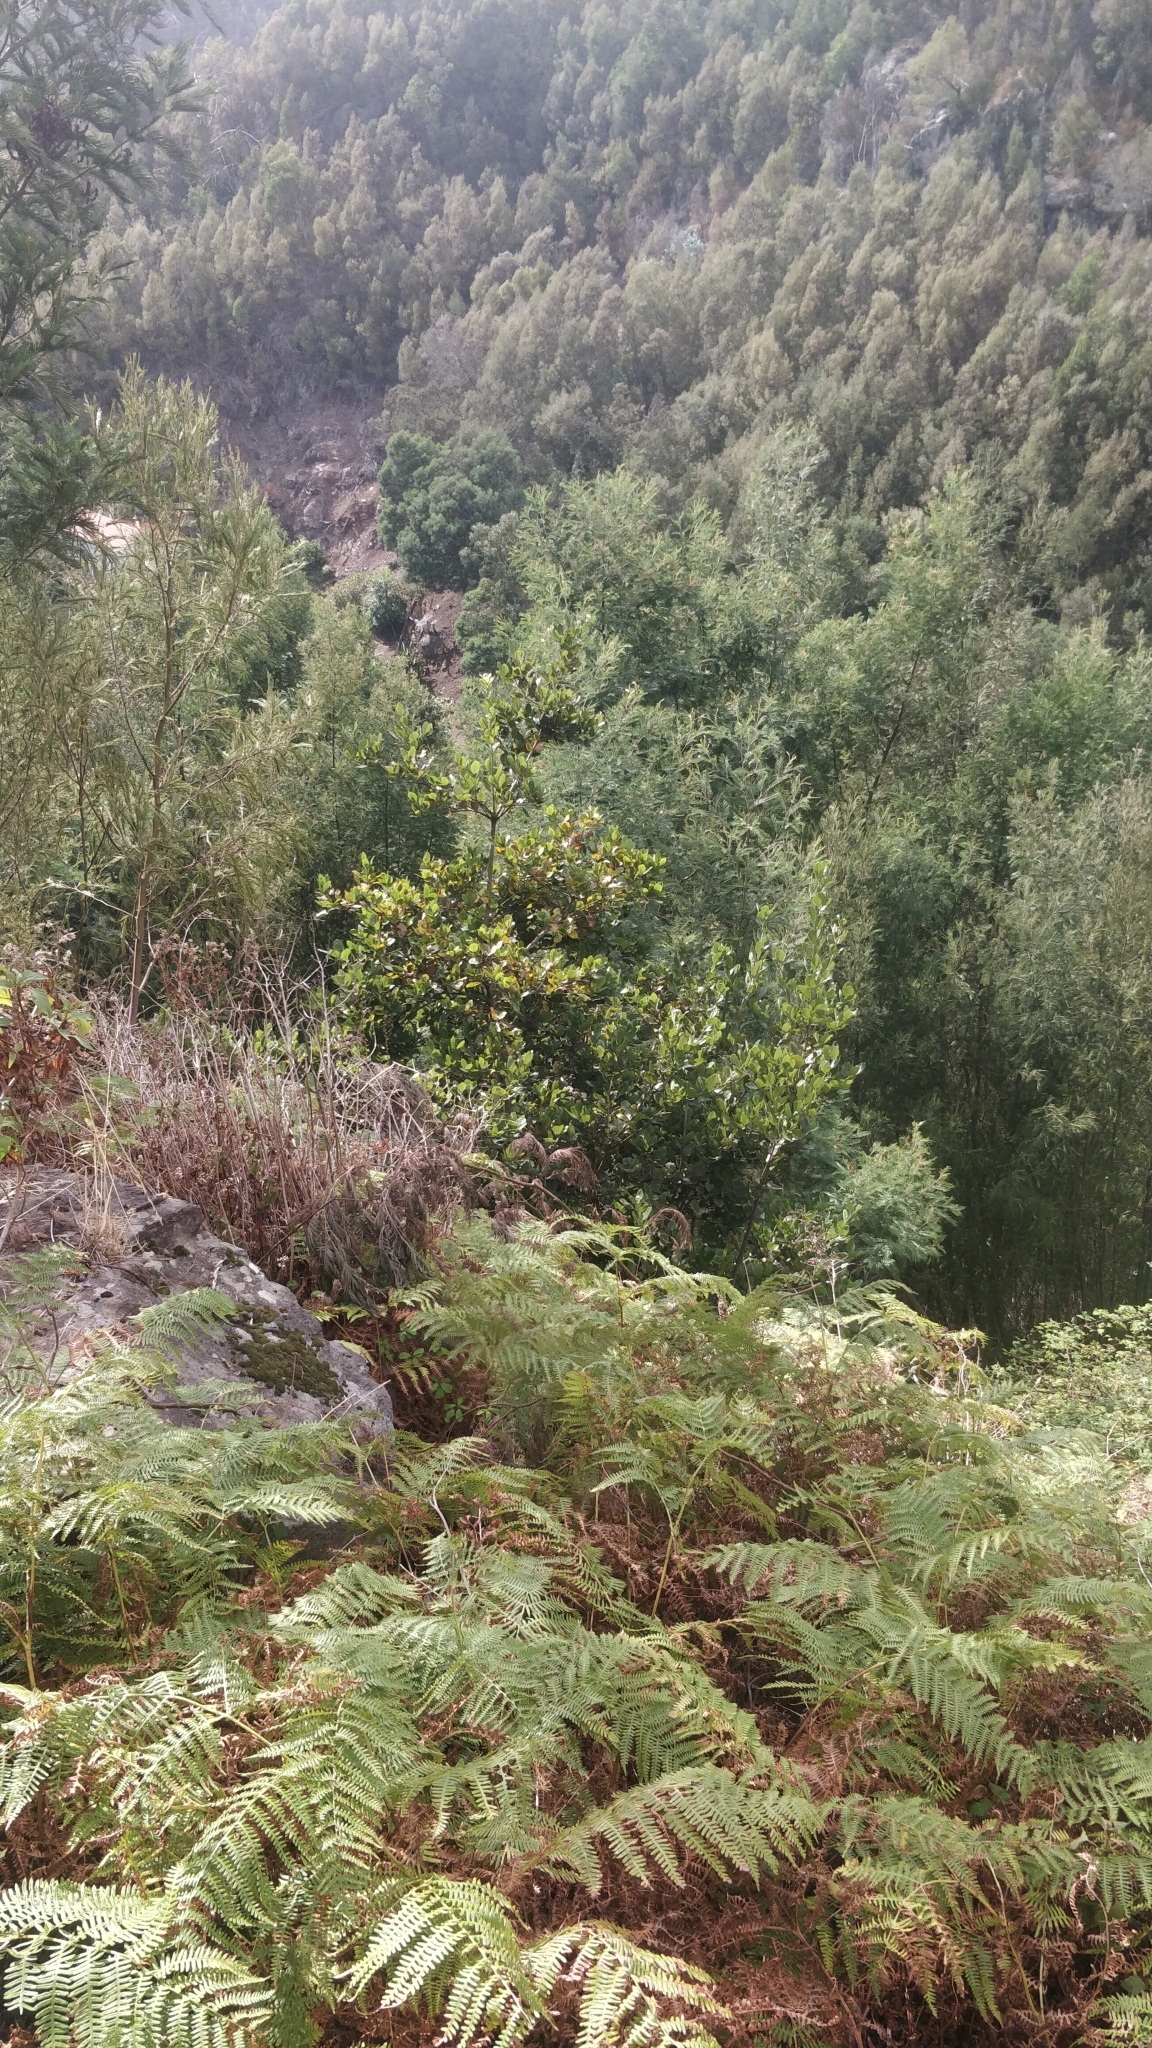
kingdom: Plantae
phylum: Tracheophyta
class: Magnoliopsida
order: Laurales
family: Lauraceae
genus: Laurus
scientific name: Laurus novocanariensis
